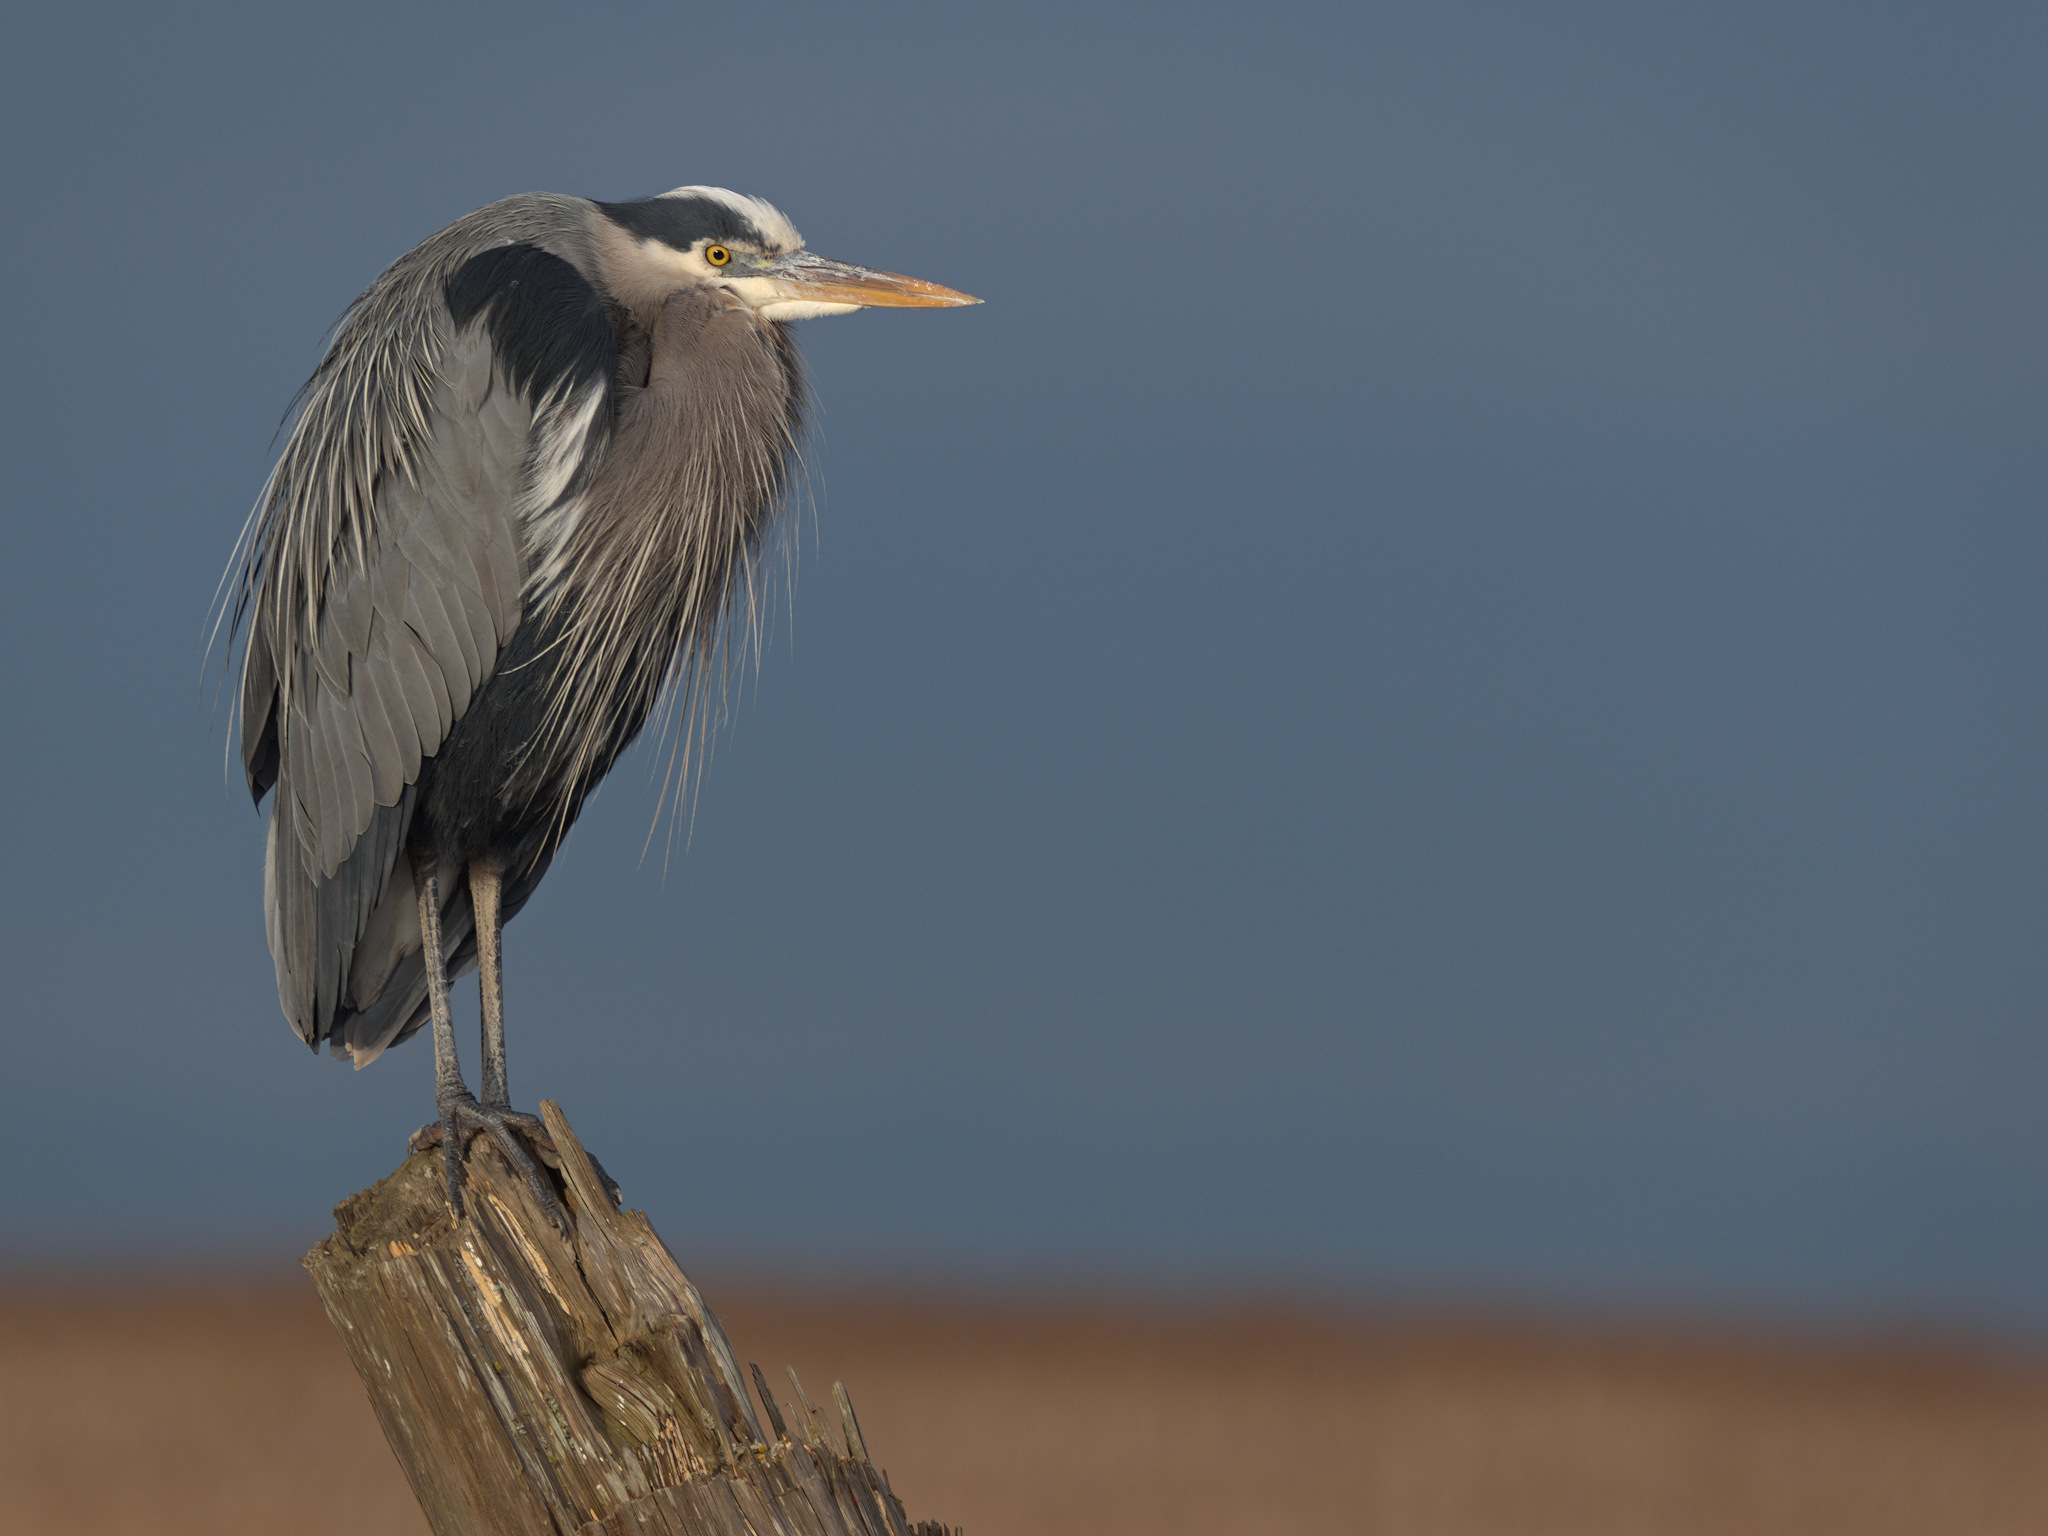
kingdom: Animalia
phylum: Chordata
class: Aves
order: Pelecaniformes
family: Ardeidae
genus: Ardea
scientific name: Ardea herodias
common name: Great blue heron
